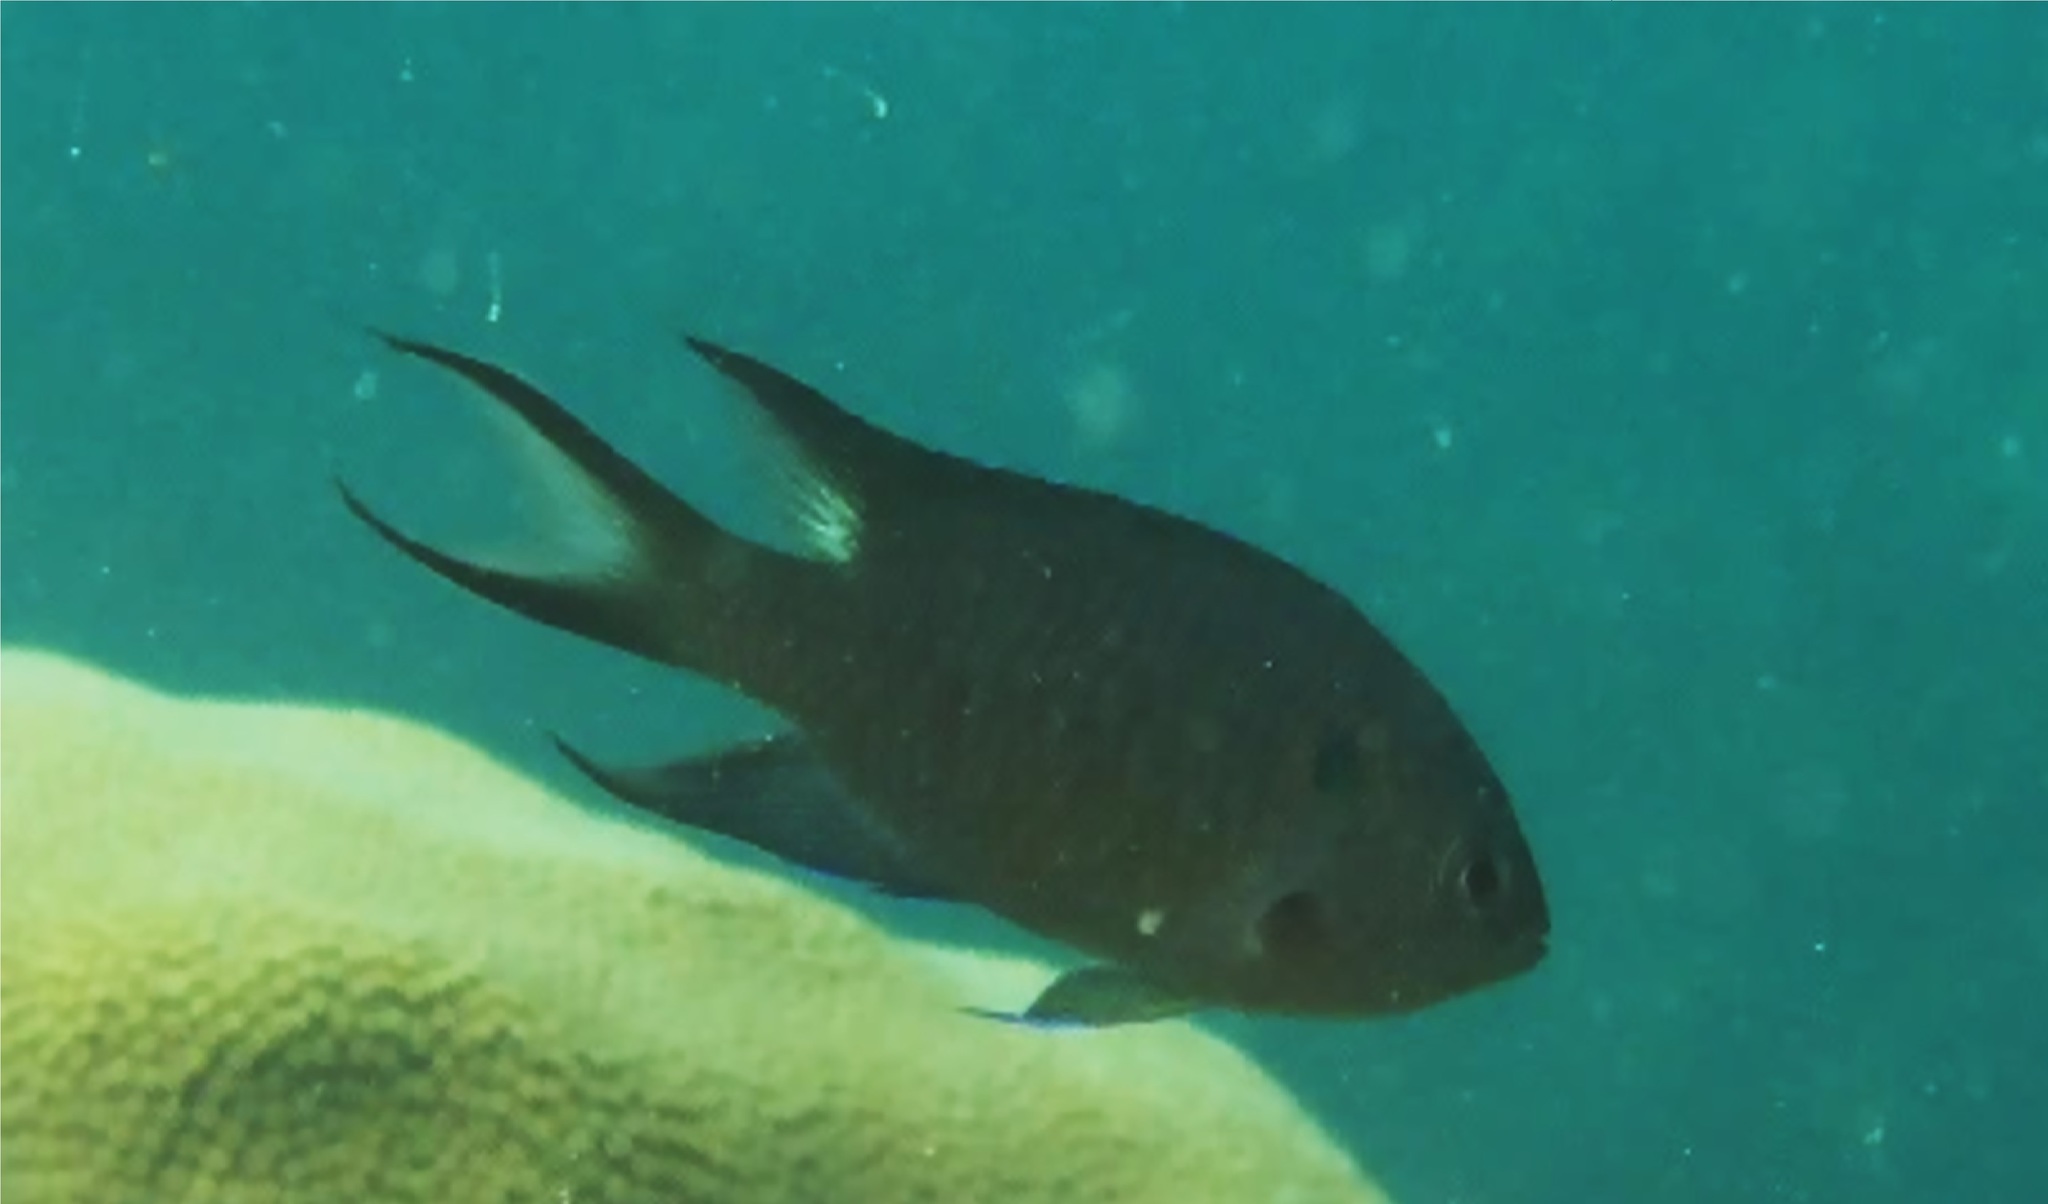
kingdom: Animalia
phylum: Chordata
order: Perciformes
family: Pomacentridae
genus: Neopomacentrus
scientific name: Neopomacentrus cyanomos
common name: Regal demoiselle
